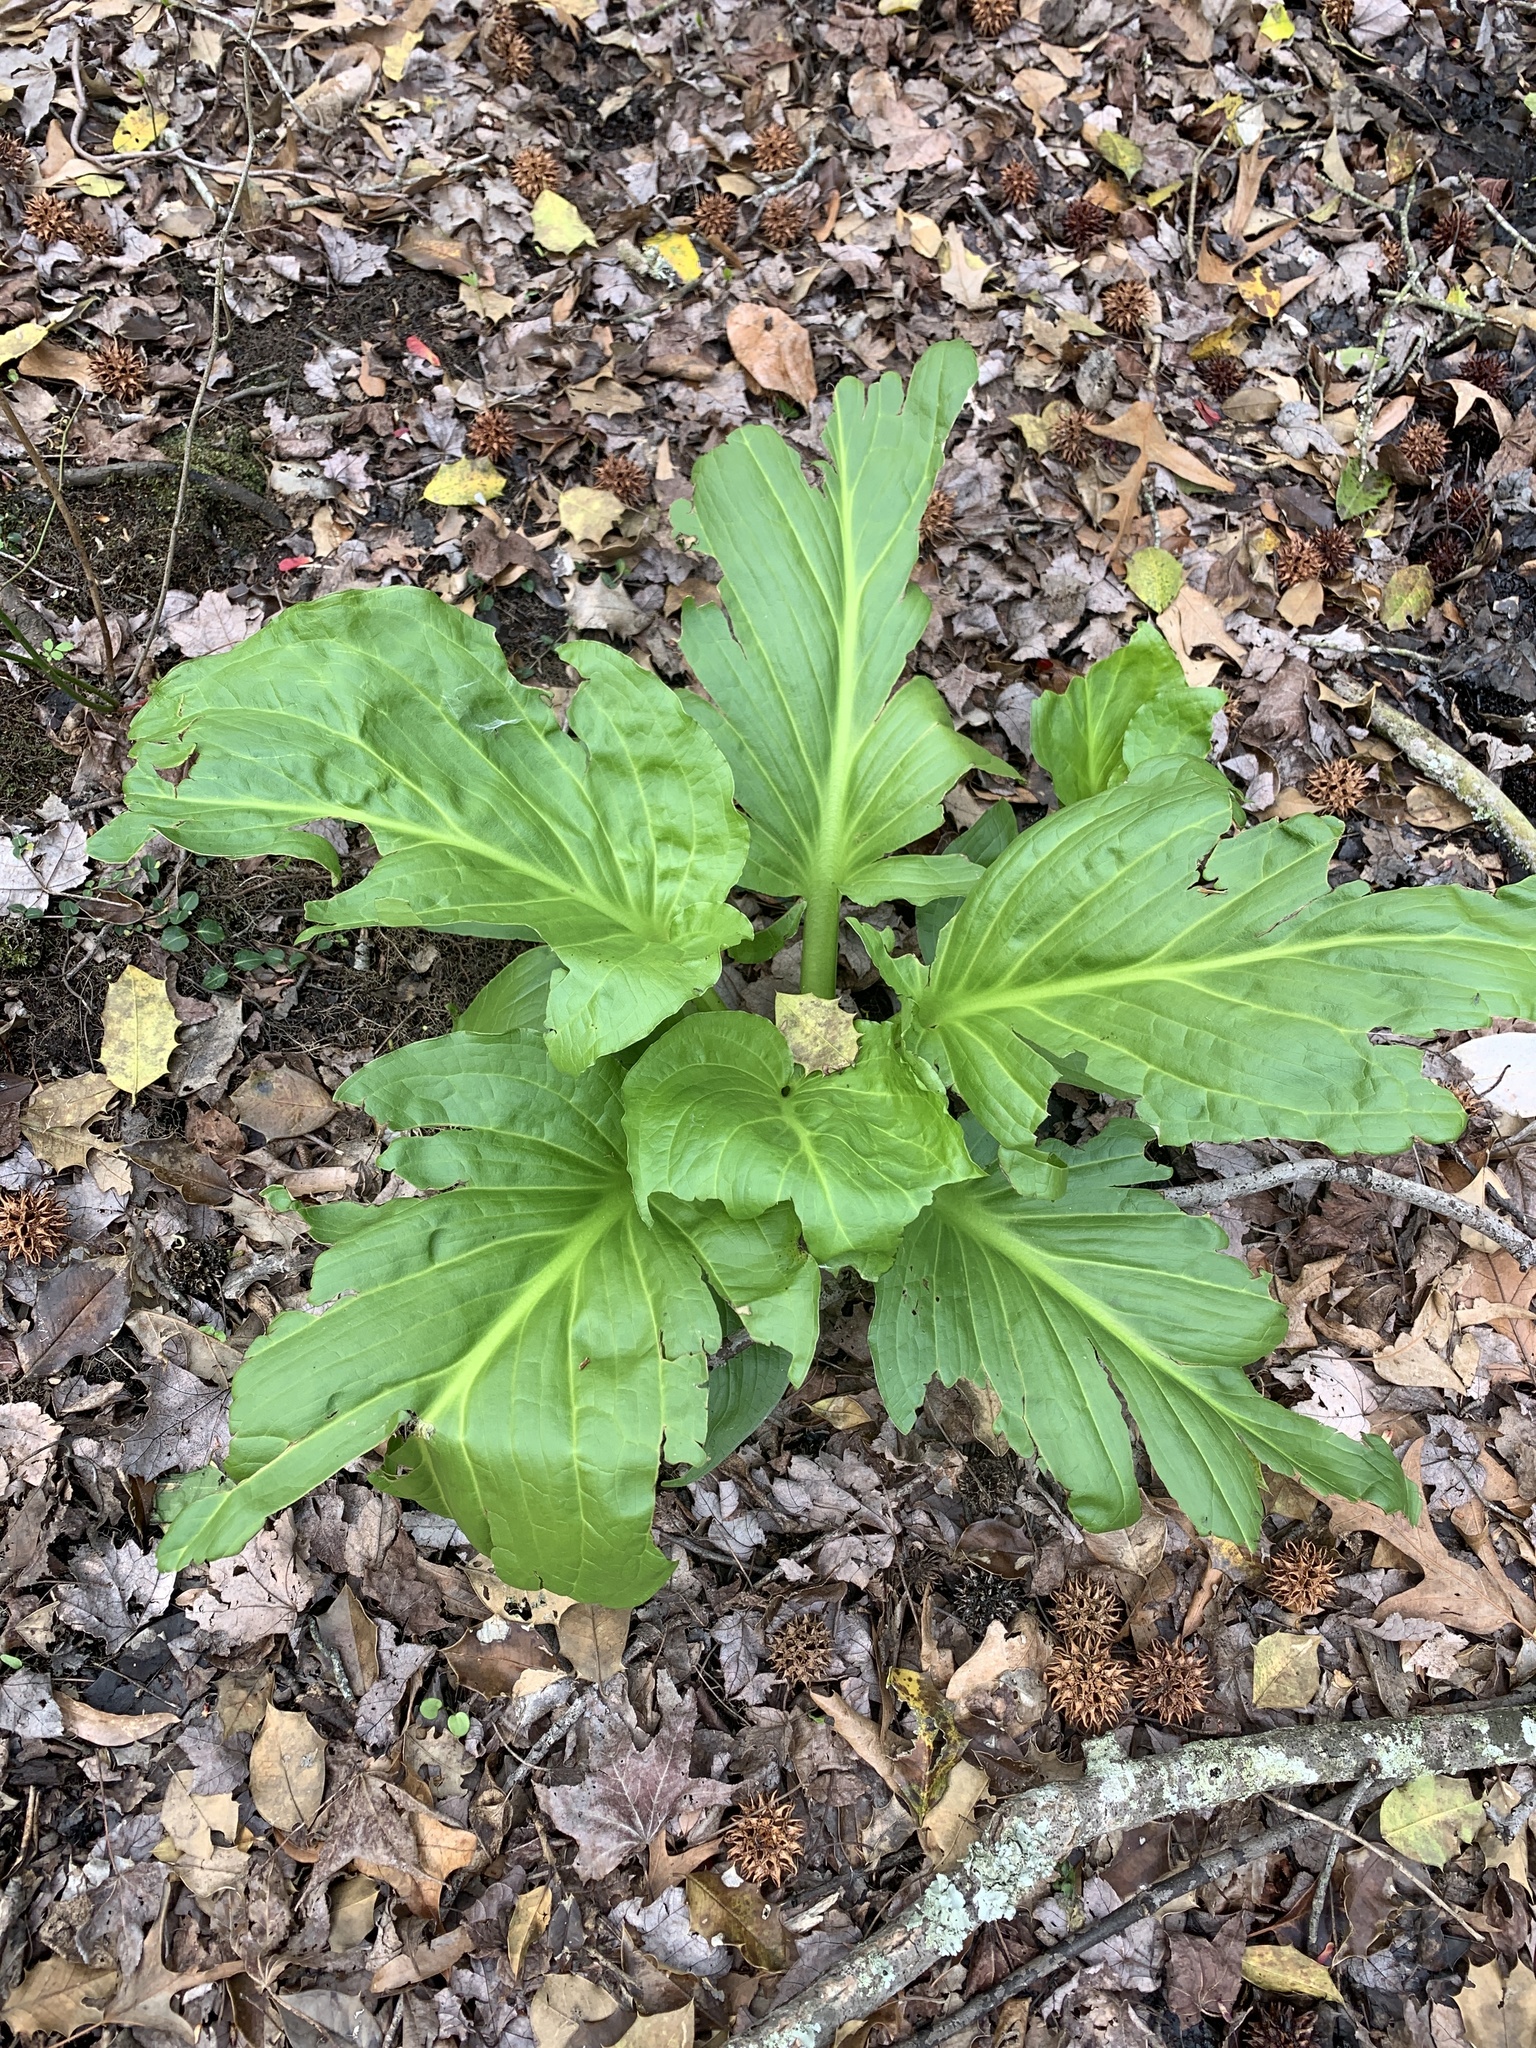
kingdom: Plantae
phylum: Tracheophyta
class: Liliopsida
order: Alismatales
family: Araceae
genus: Symplocarpus
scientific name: Symplocarpus foetidus
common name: Eastern skunk cabbage
